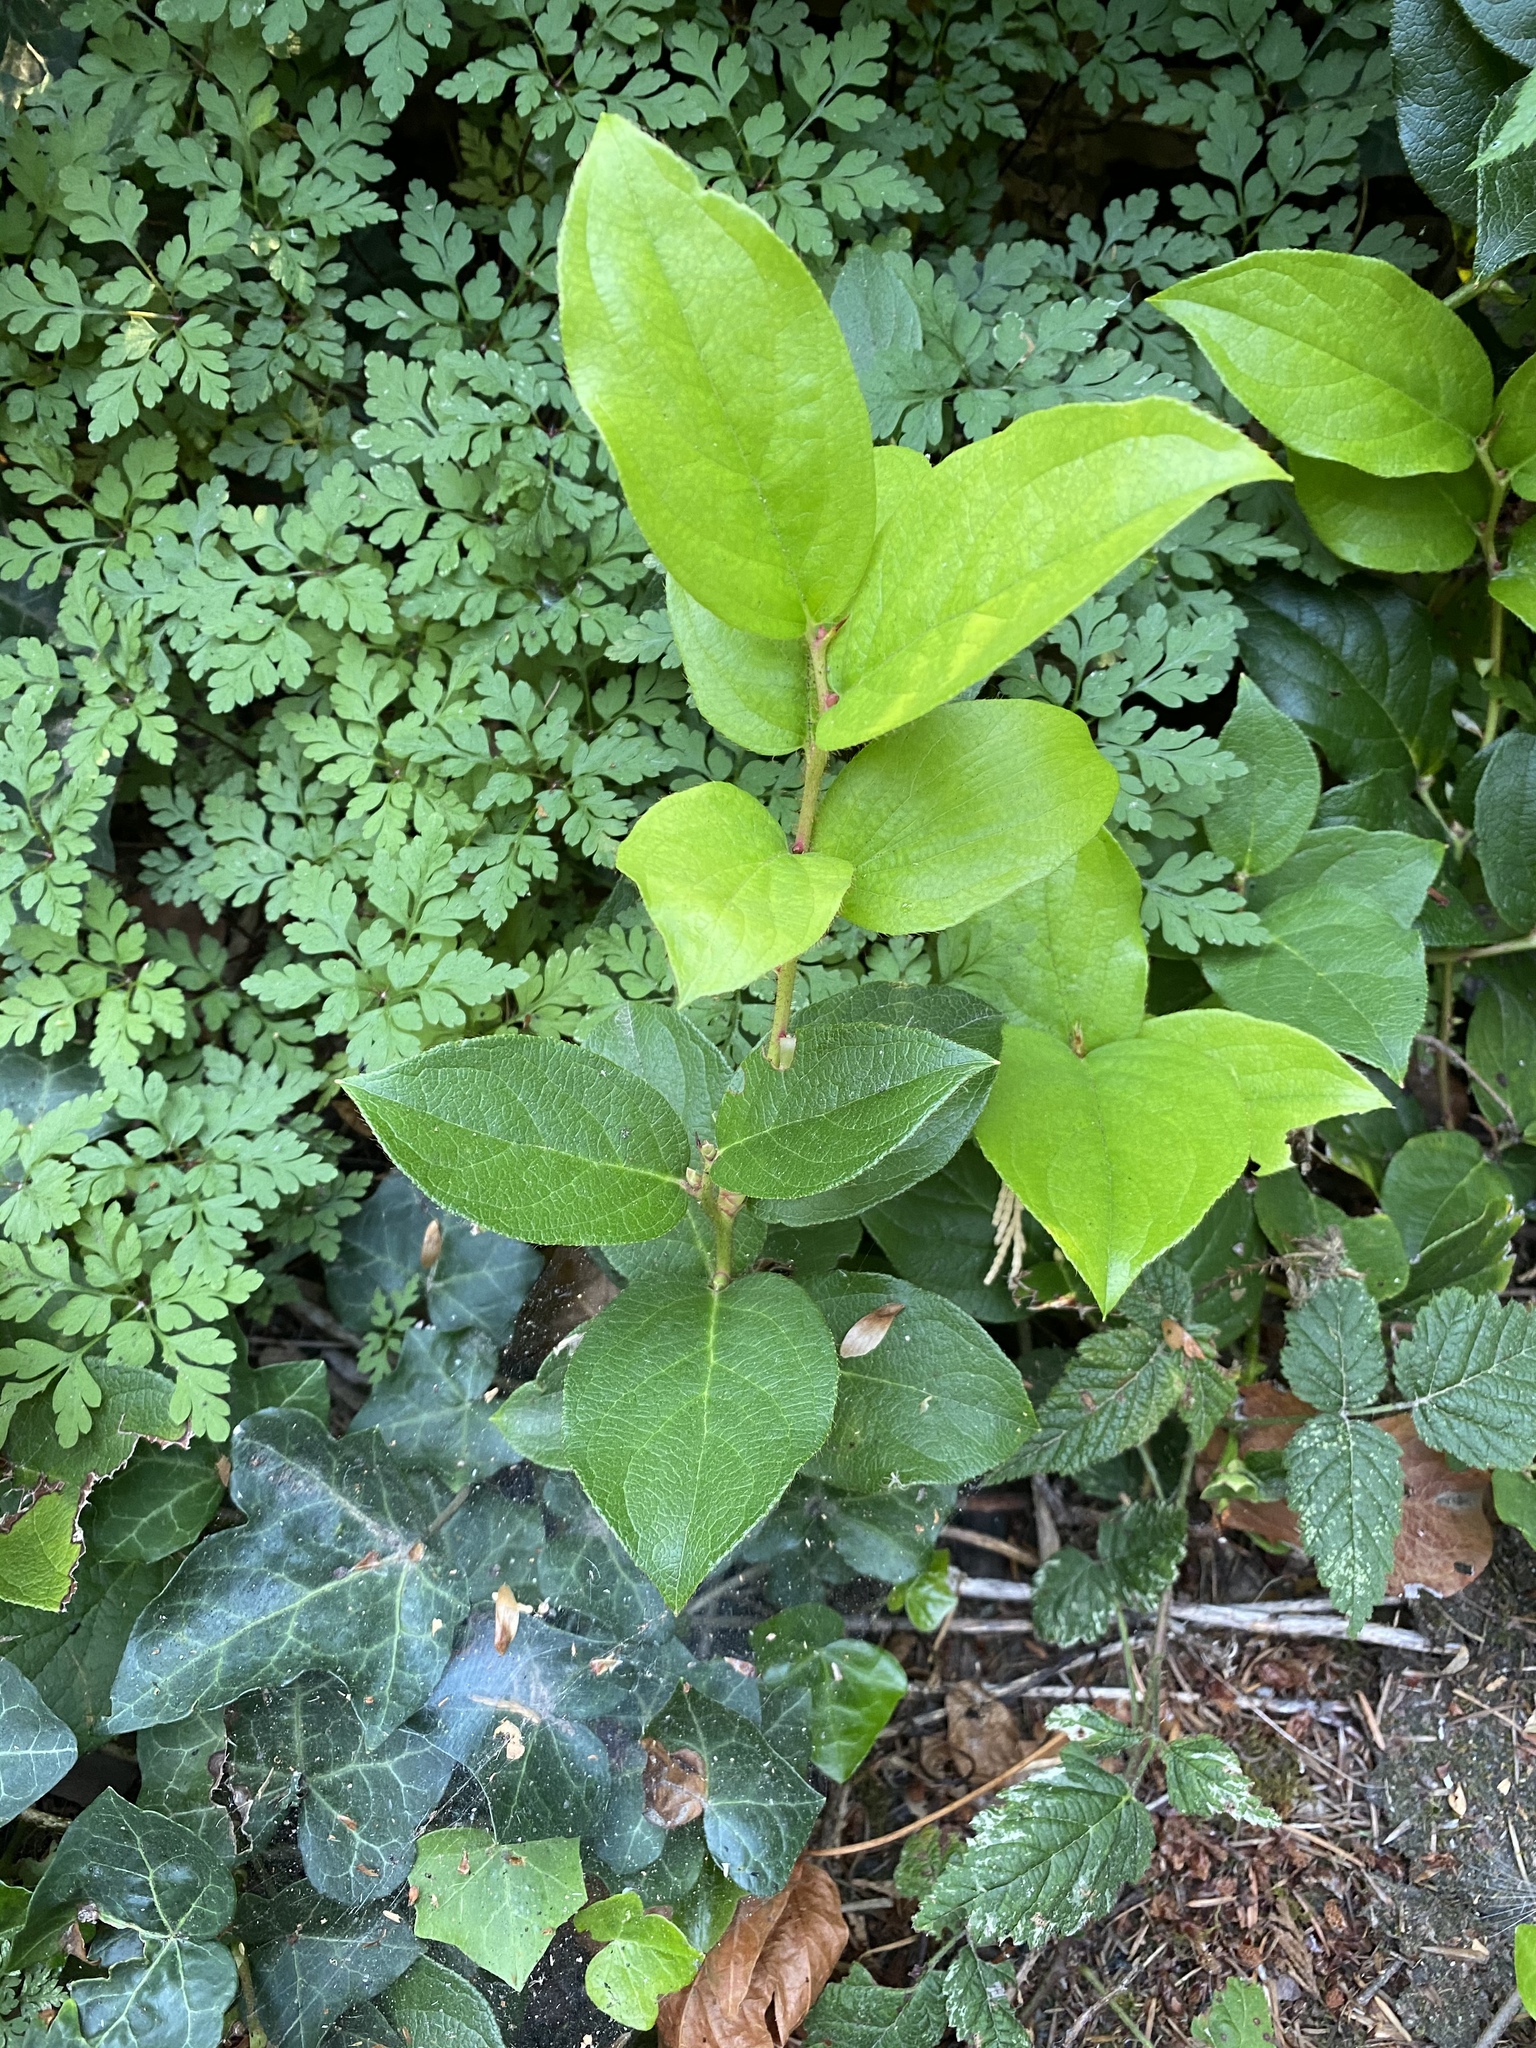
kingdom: Plantae
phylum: Tracheophyta
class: Magnoliopsida
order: Ericales
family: Ericaceae
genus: Gaultheria
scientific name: Gaultheria shallon
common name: Shallon
